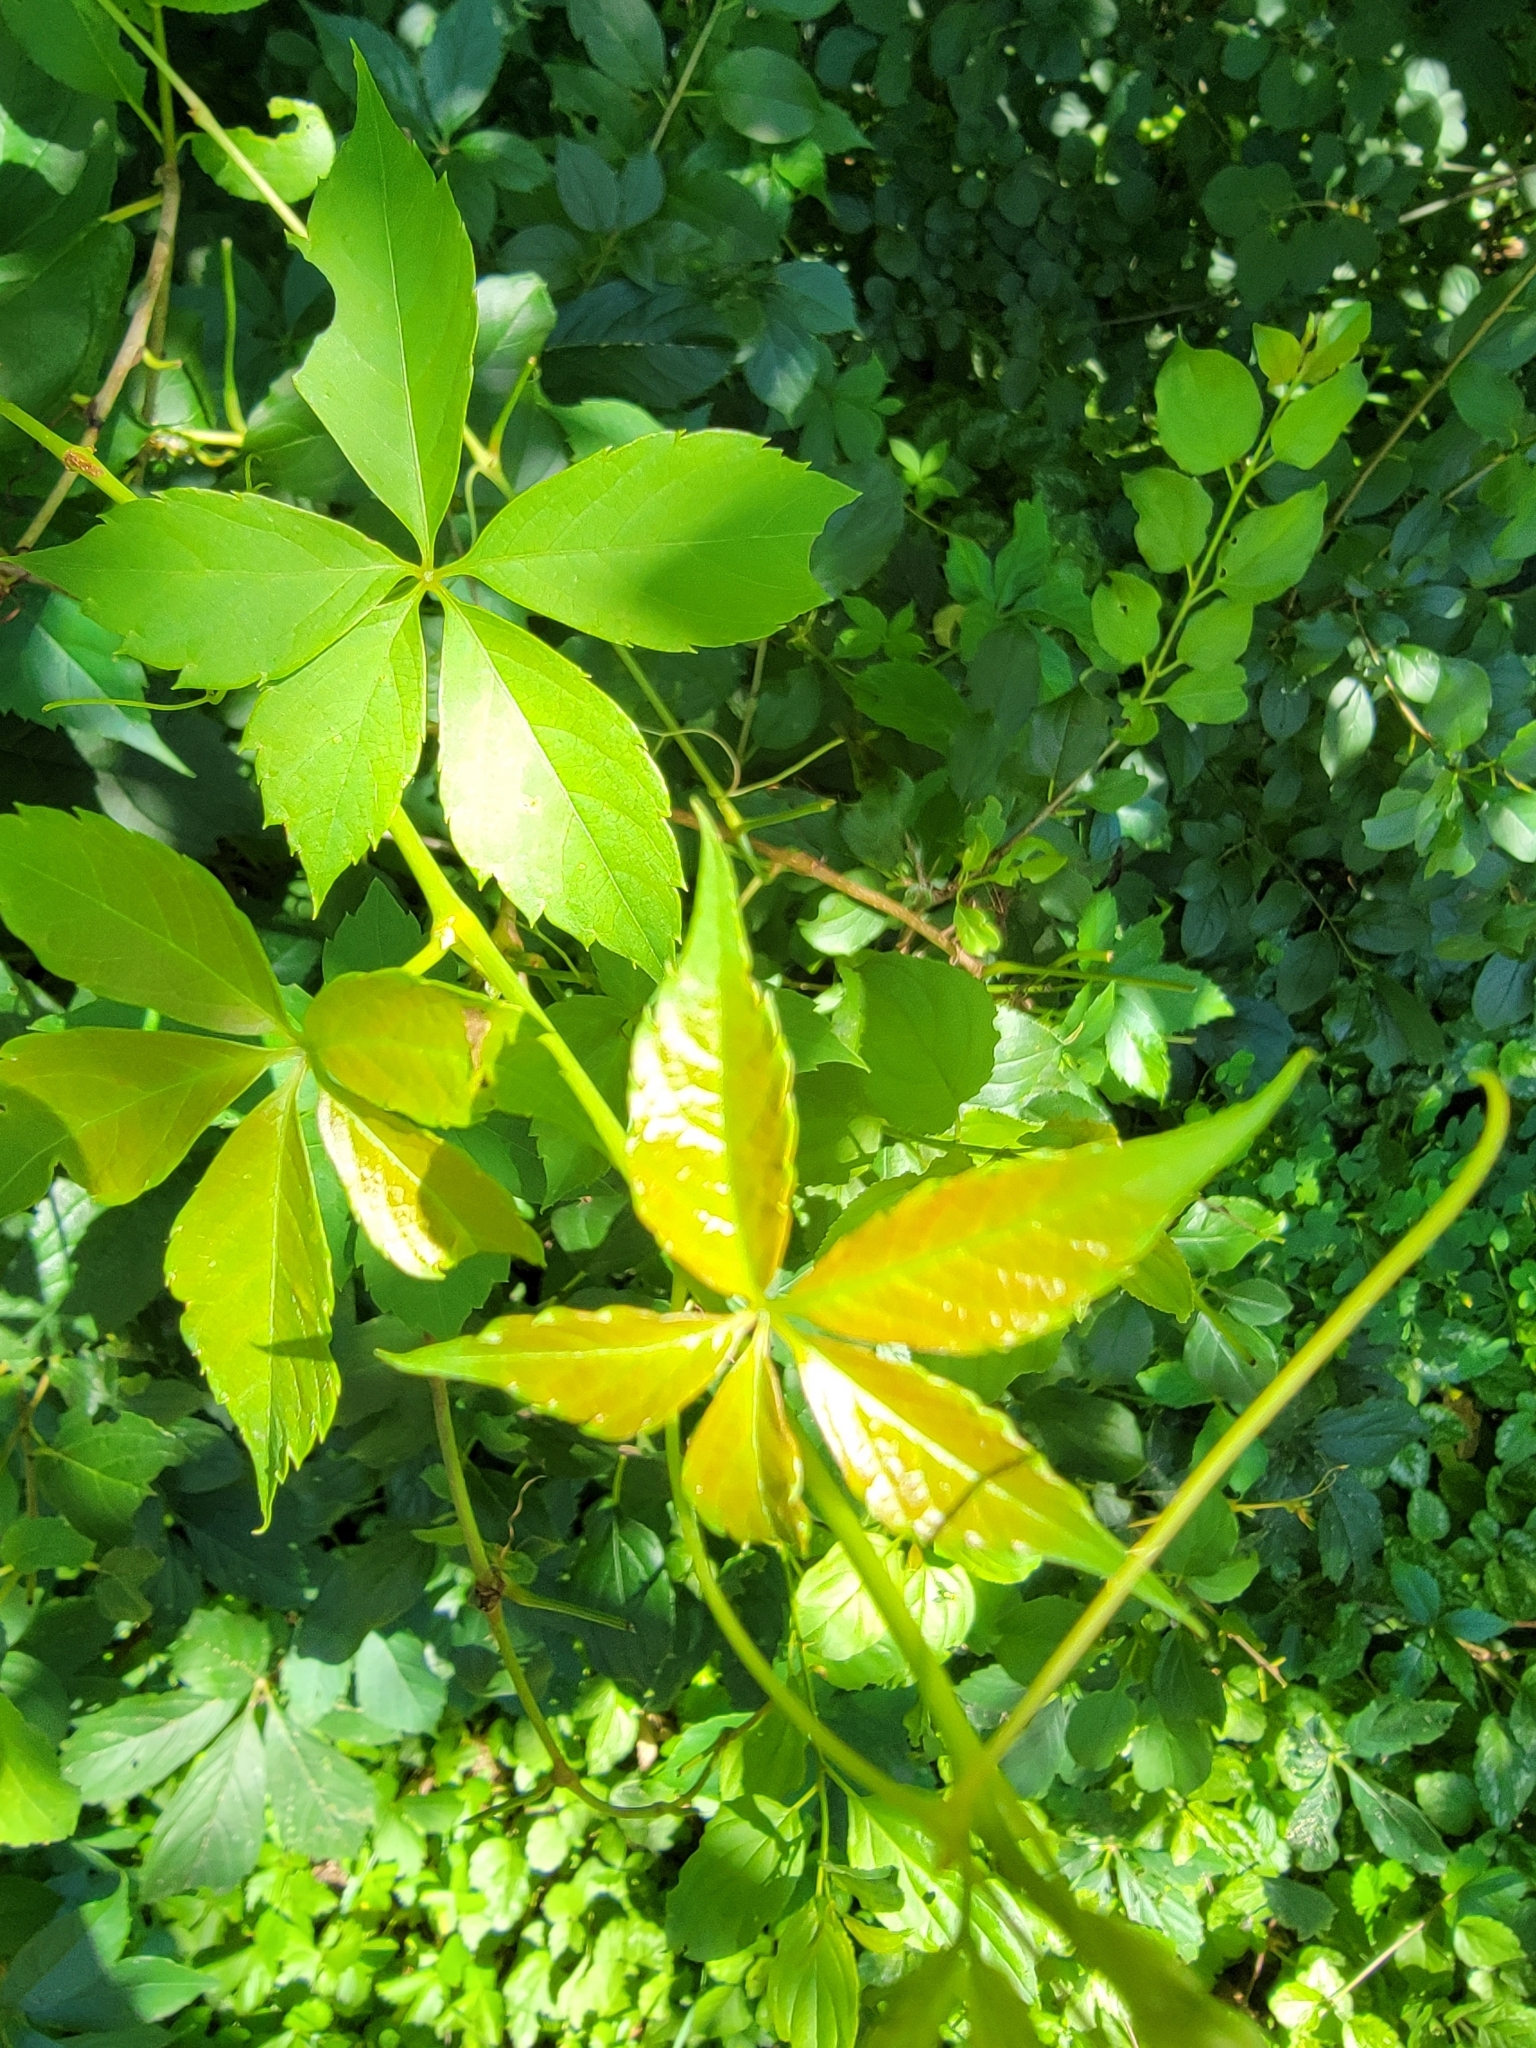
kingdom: Plantae
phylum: Tracheophyta
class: Magnoliopsida
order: Vitales
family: Vitaceae
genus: Parthenocissus
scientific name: Parthenocissus quinquefolia
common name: Virginia-creeper
